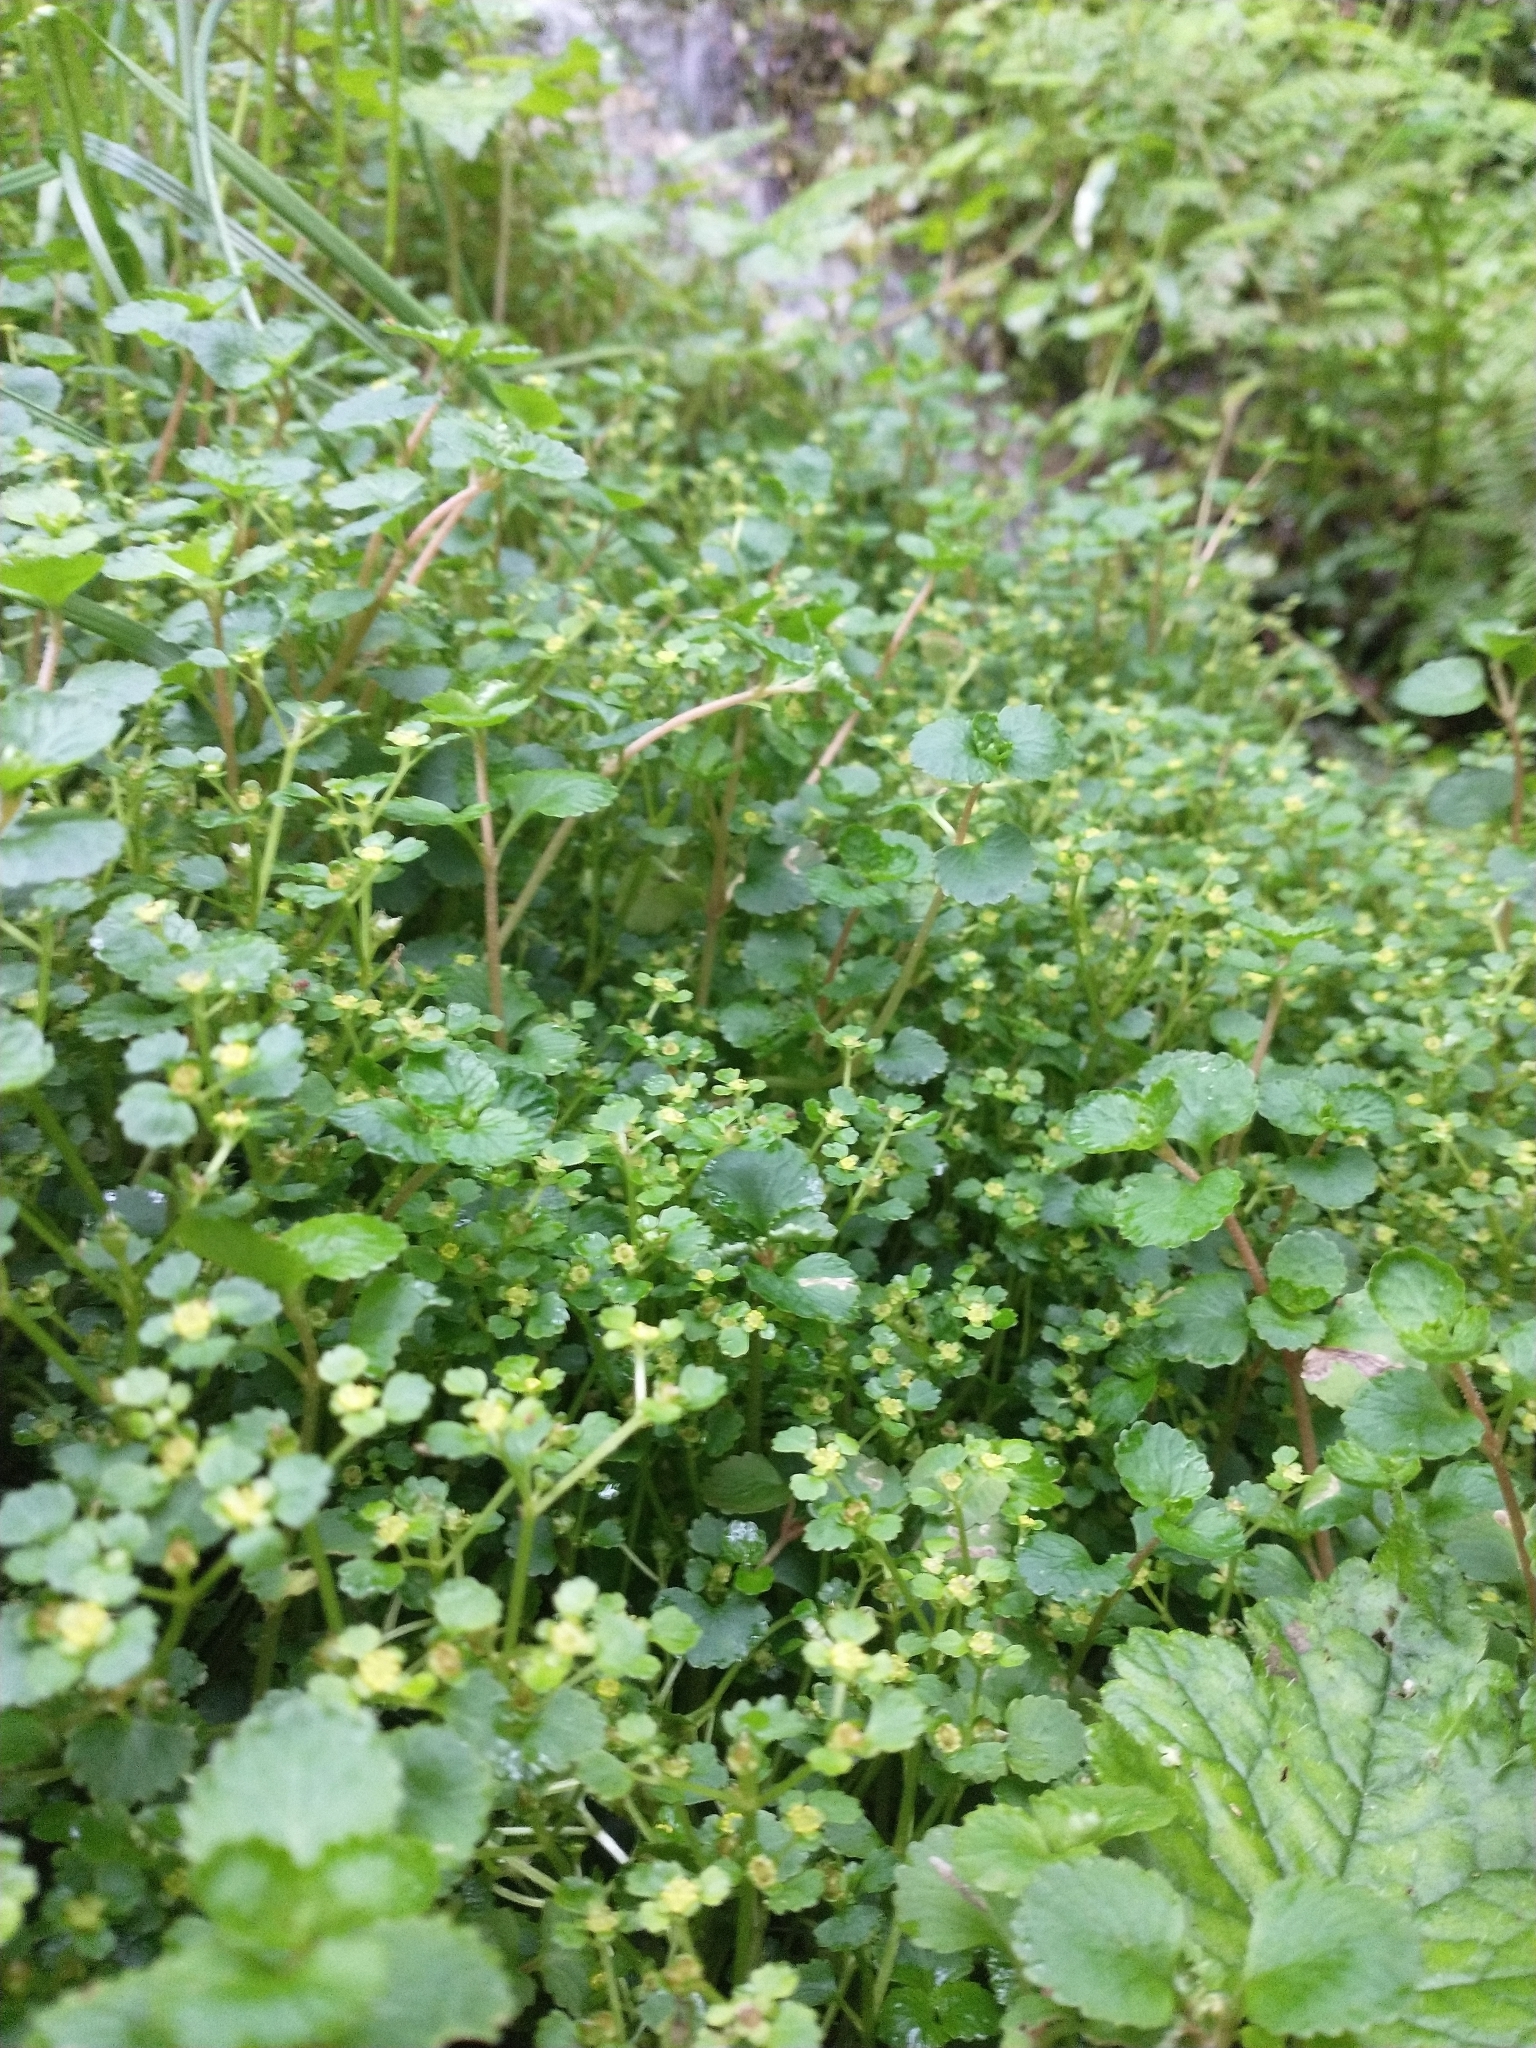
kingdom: Plantae
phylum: Tracheophyta
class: Magnoliopsida
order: Saxifragales
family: Saxifragaceae
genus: Chrysosplenium
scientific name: Chrysosplenium glechomifolium
